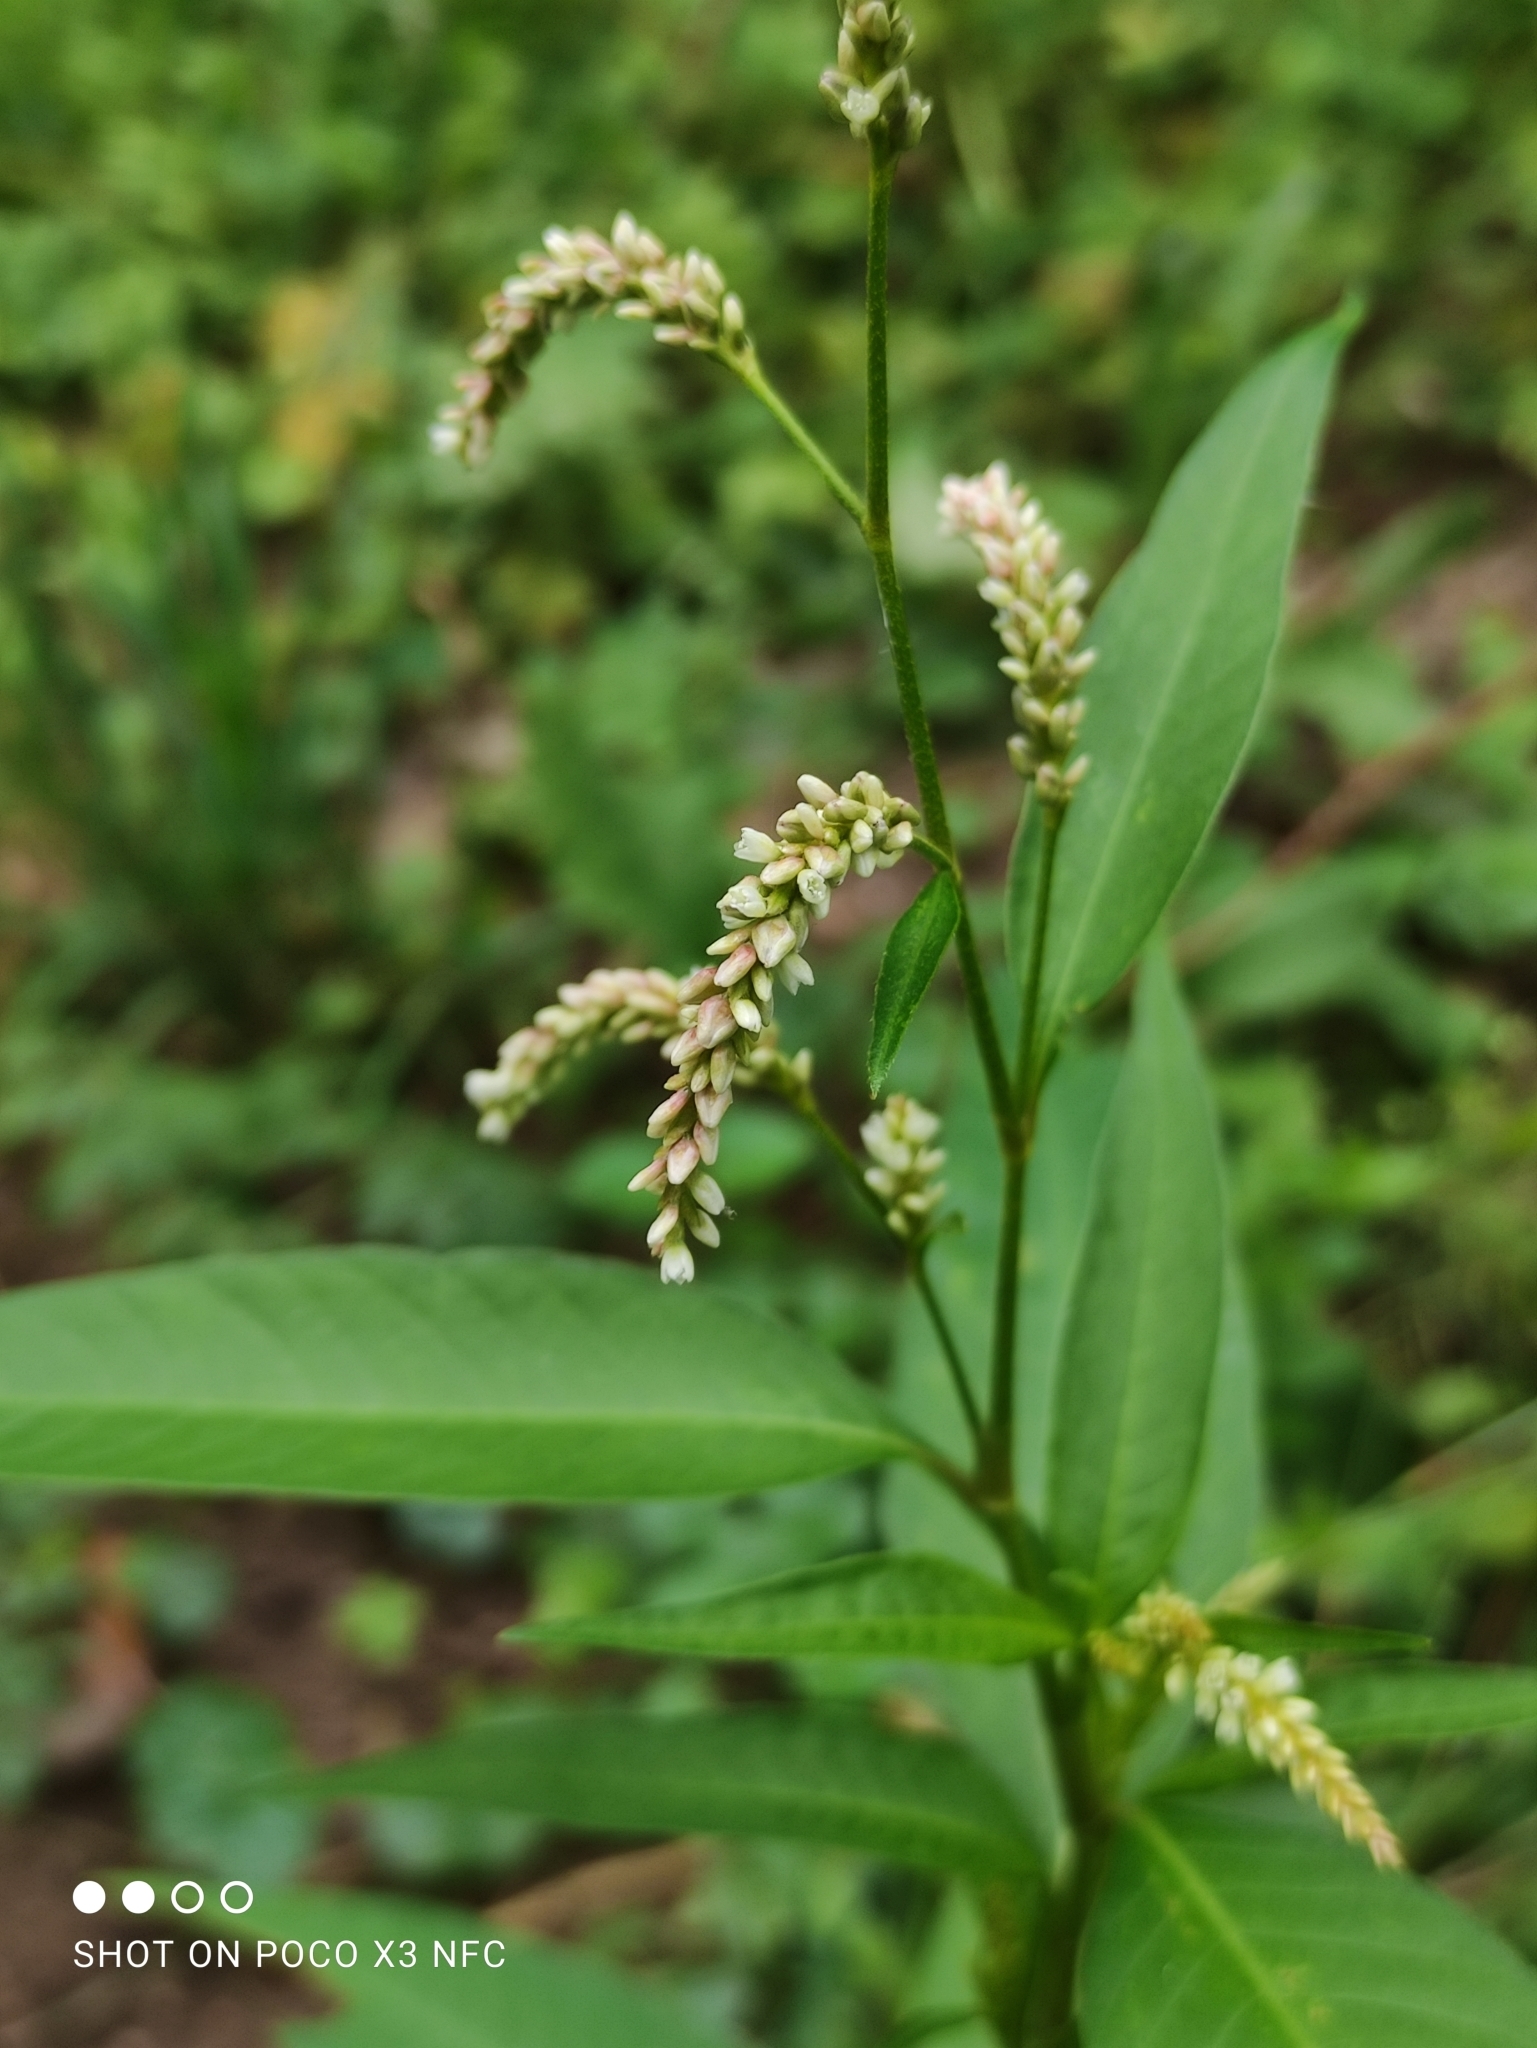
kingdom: Plantae
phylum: Tracheophyta
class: Magnoliopsida
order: Caryophyllales
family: Polygonaceae
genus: Persicaria
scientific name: Persicaria lapathifolia
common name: Curlytop knotweed
